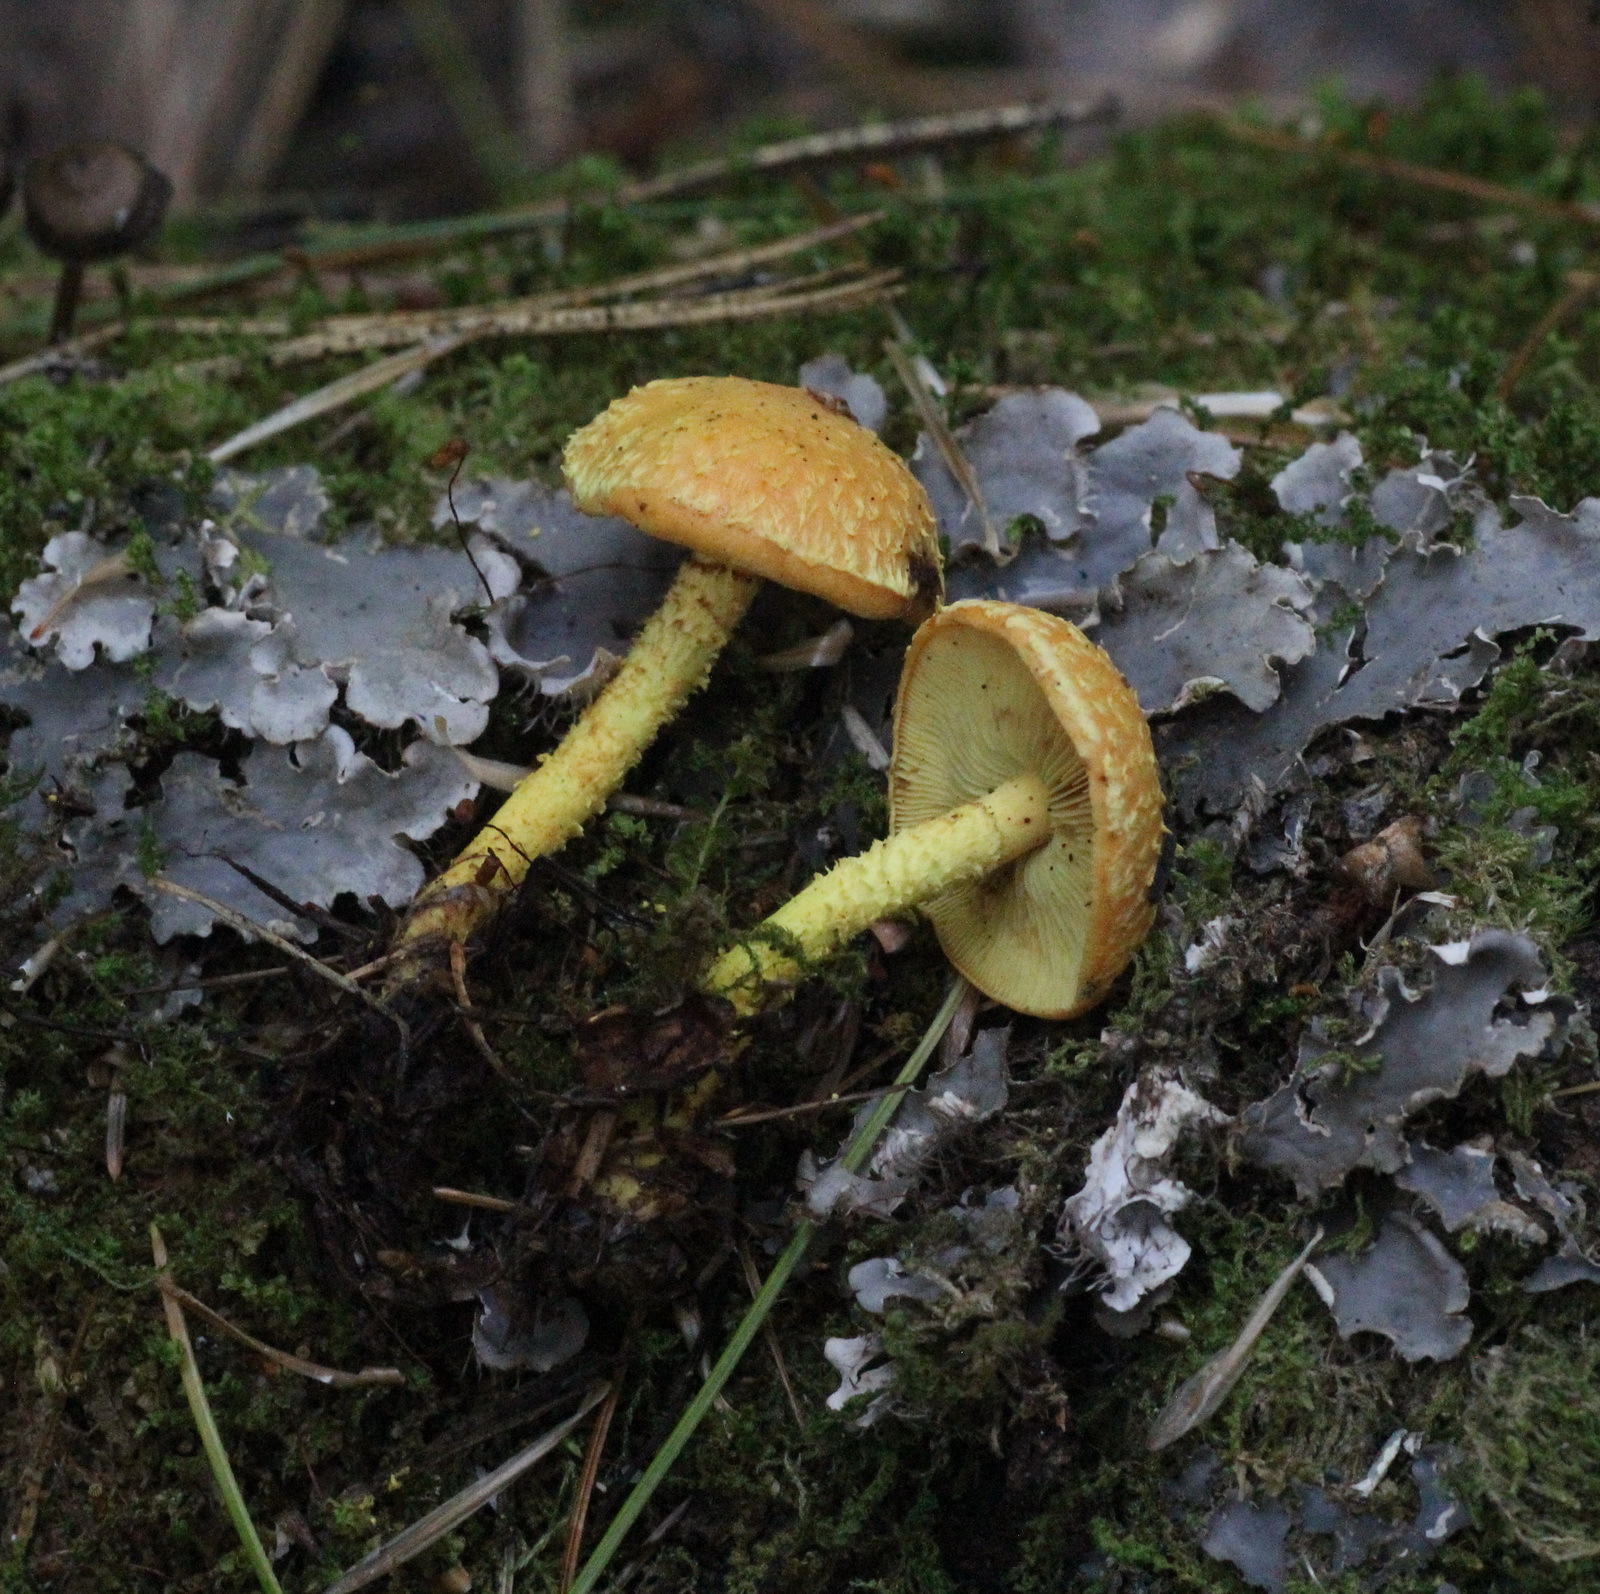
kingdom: Fungi
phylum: Basidiomycota
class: Agaricomycetes
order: Agaricales
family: Strophariaceae
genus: Pholiota
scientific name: Pholiota flammans
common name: Flaming scalycap
